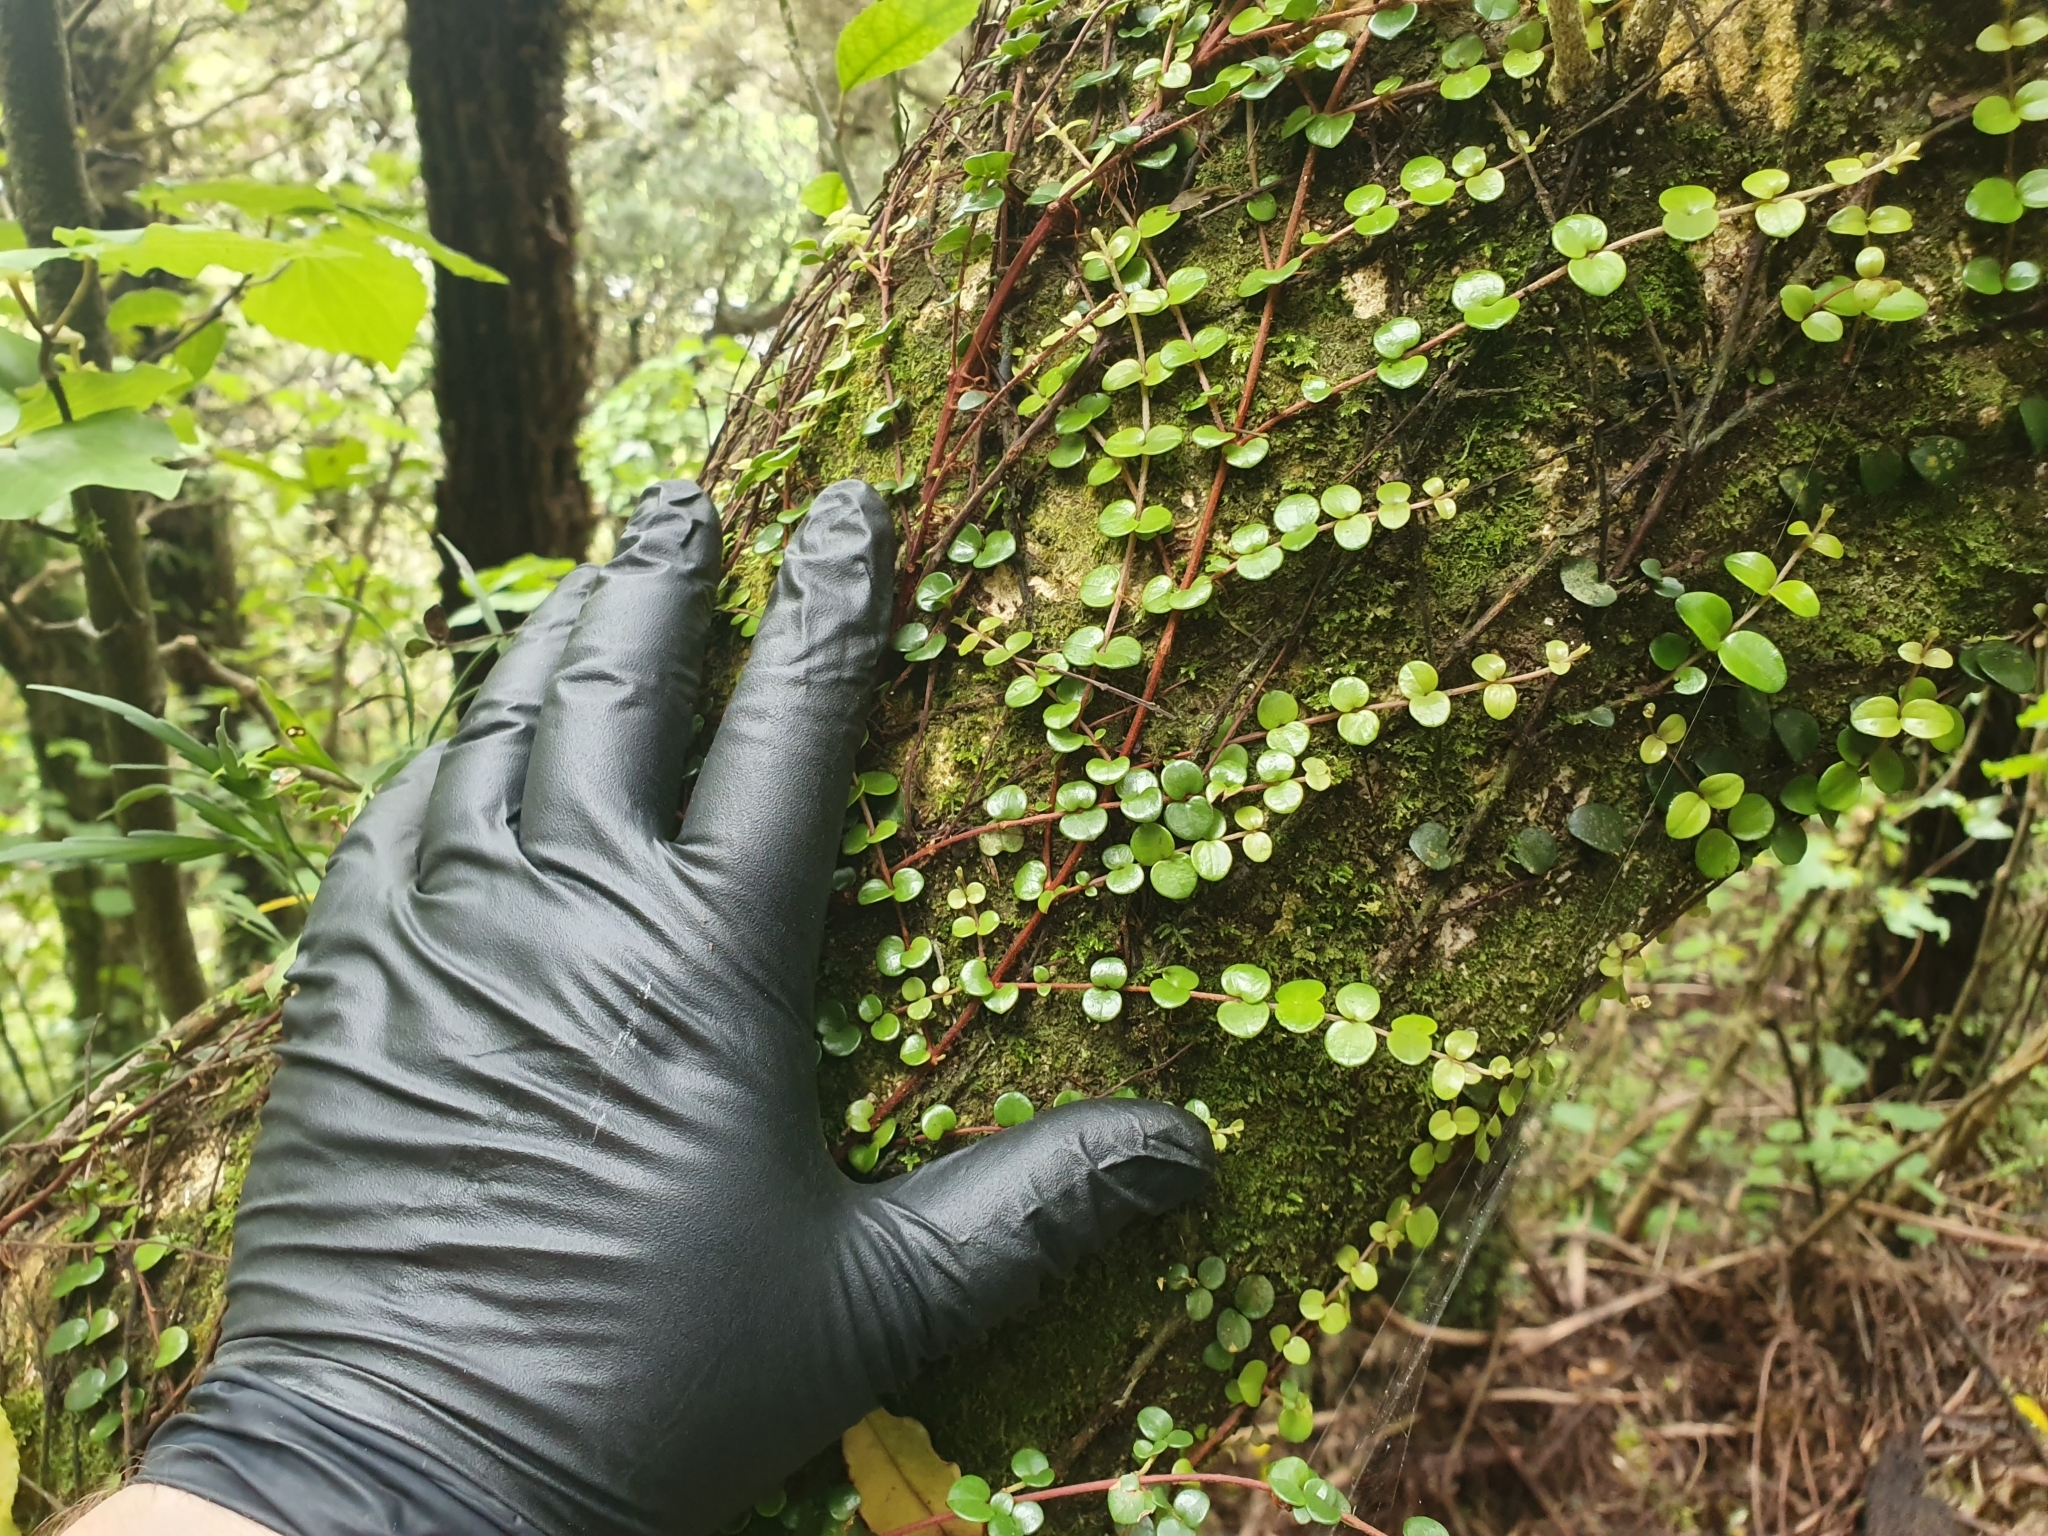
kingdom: Plantae
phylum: Tracheophyta
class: Magnoliopsida
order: Myrtales
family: Myrtaceae
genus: Metrosideros
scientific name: Metrosideros perforata
